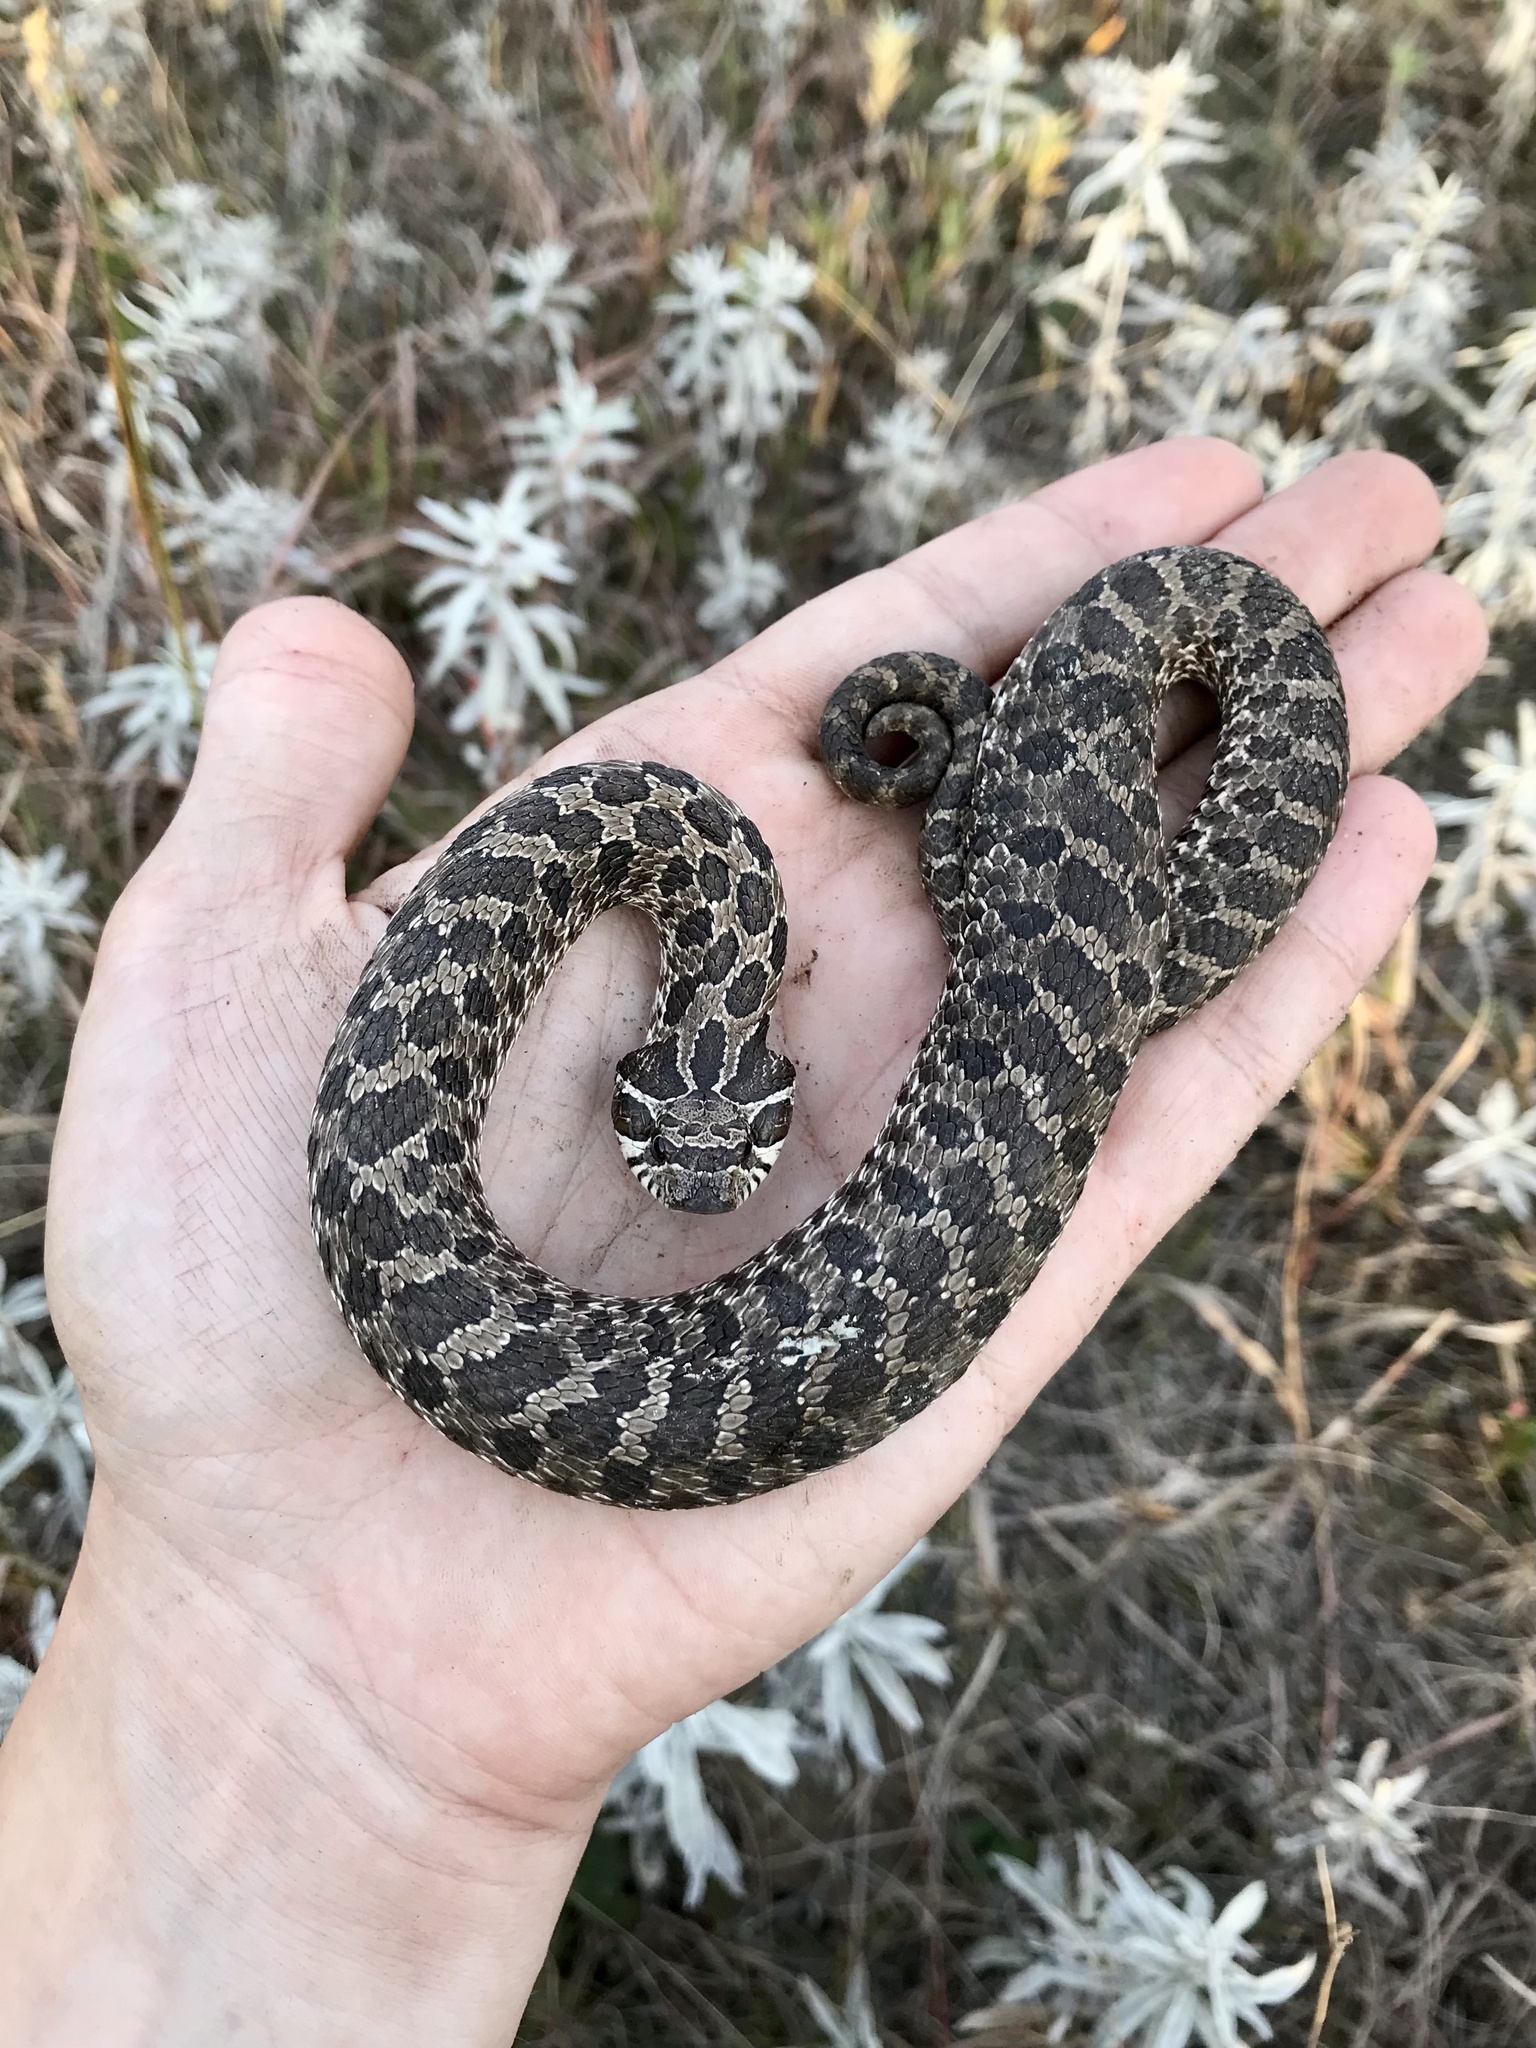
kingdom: Animalia
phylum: Chordata
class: Squamata
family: Colubridae
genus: Heterodon
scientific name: Heterodon nasicus
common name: Western hognose snake
